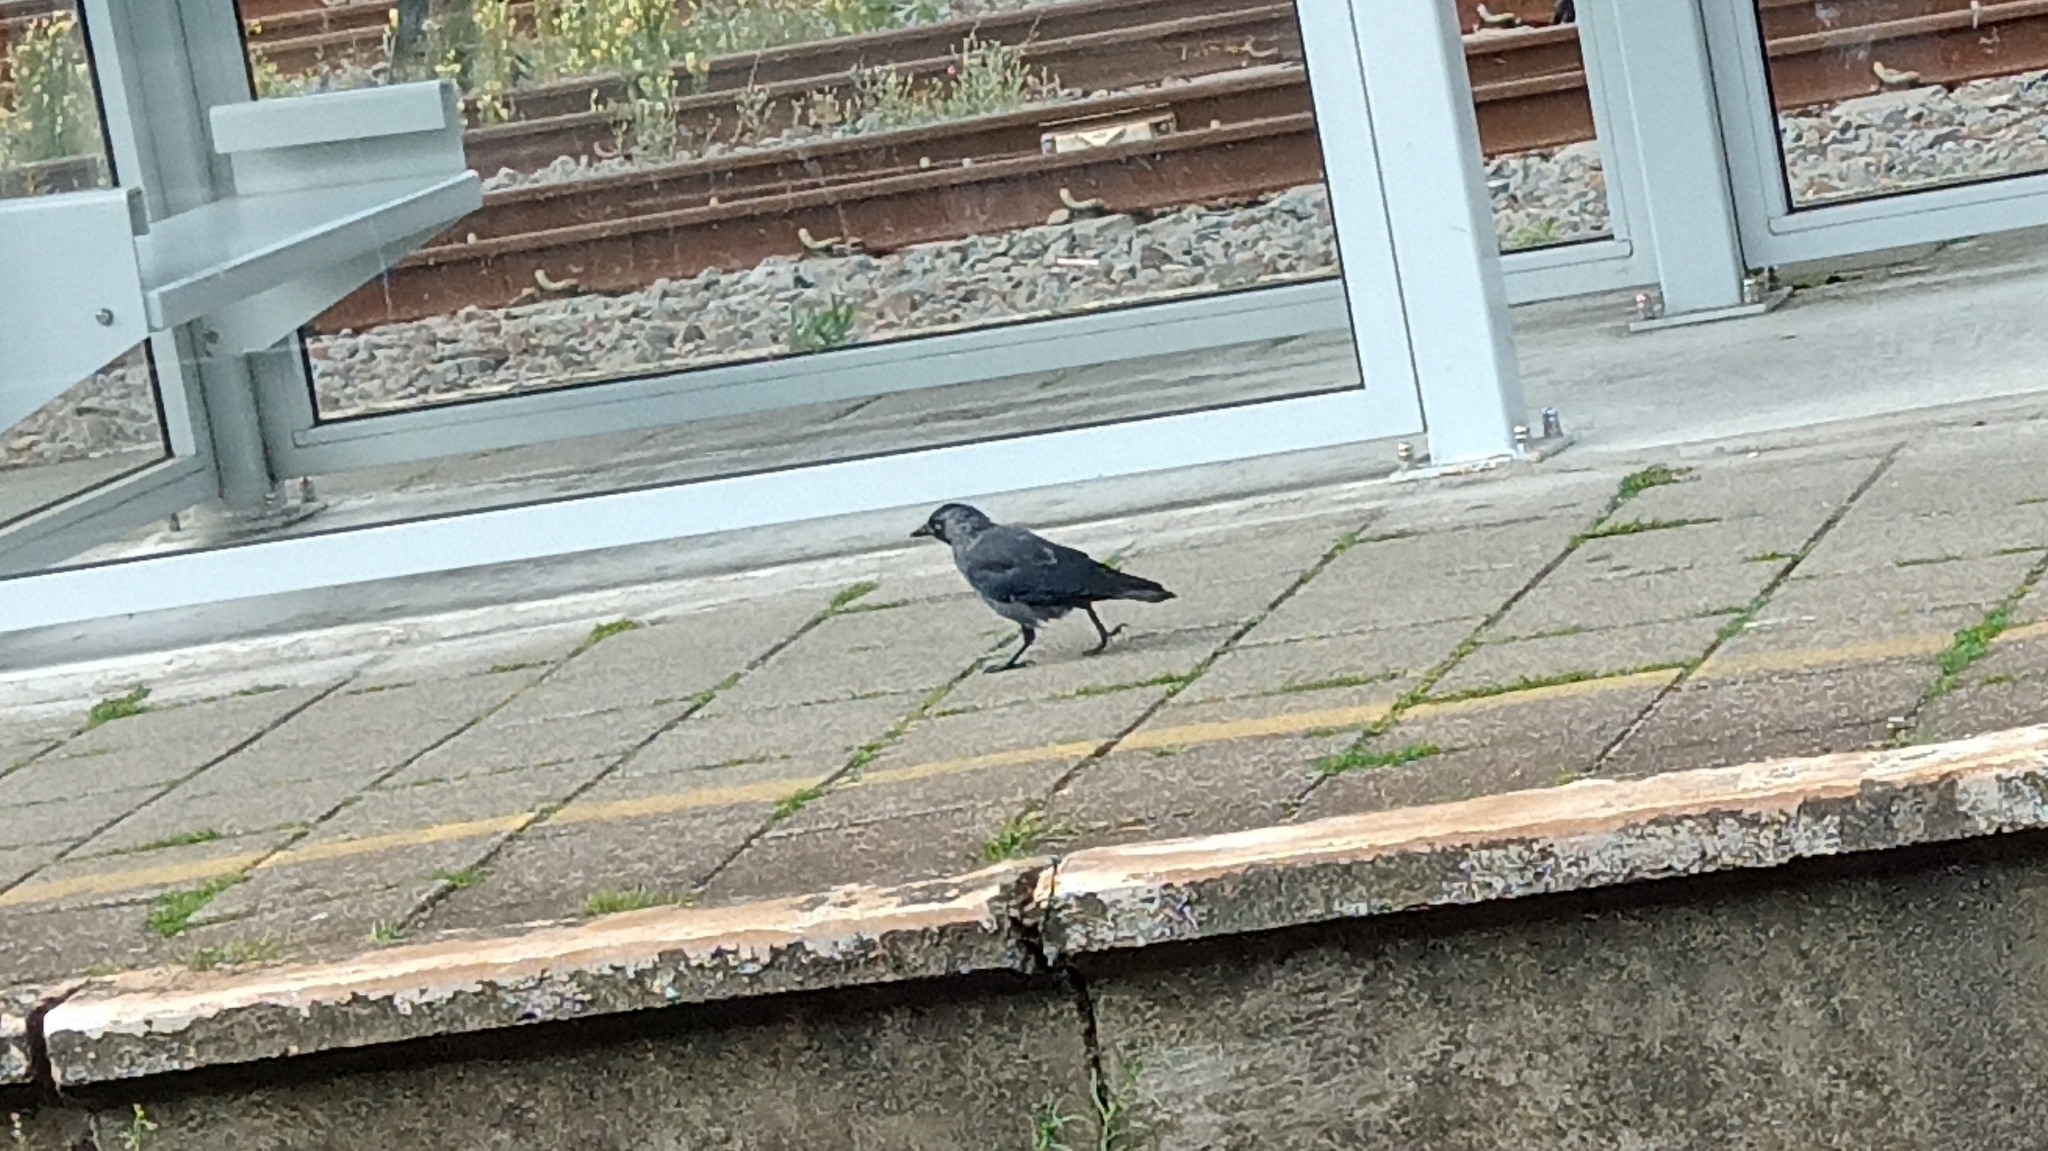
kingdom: Animalia
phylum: Chordata
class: Aves
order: Passeriformes
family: Corvidae
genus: Coloeus
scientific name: Coloeus monedula
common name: Western jackdaw
